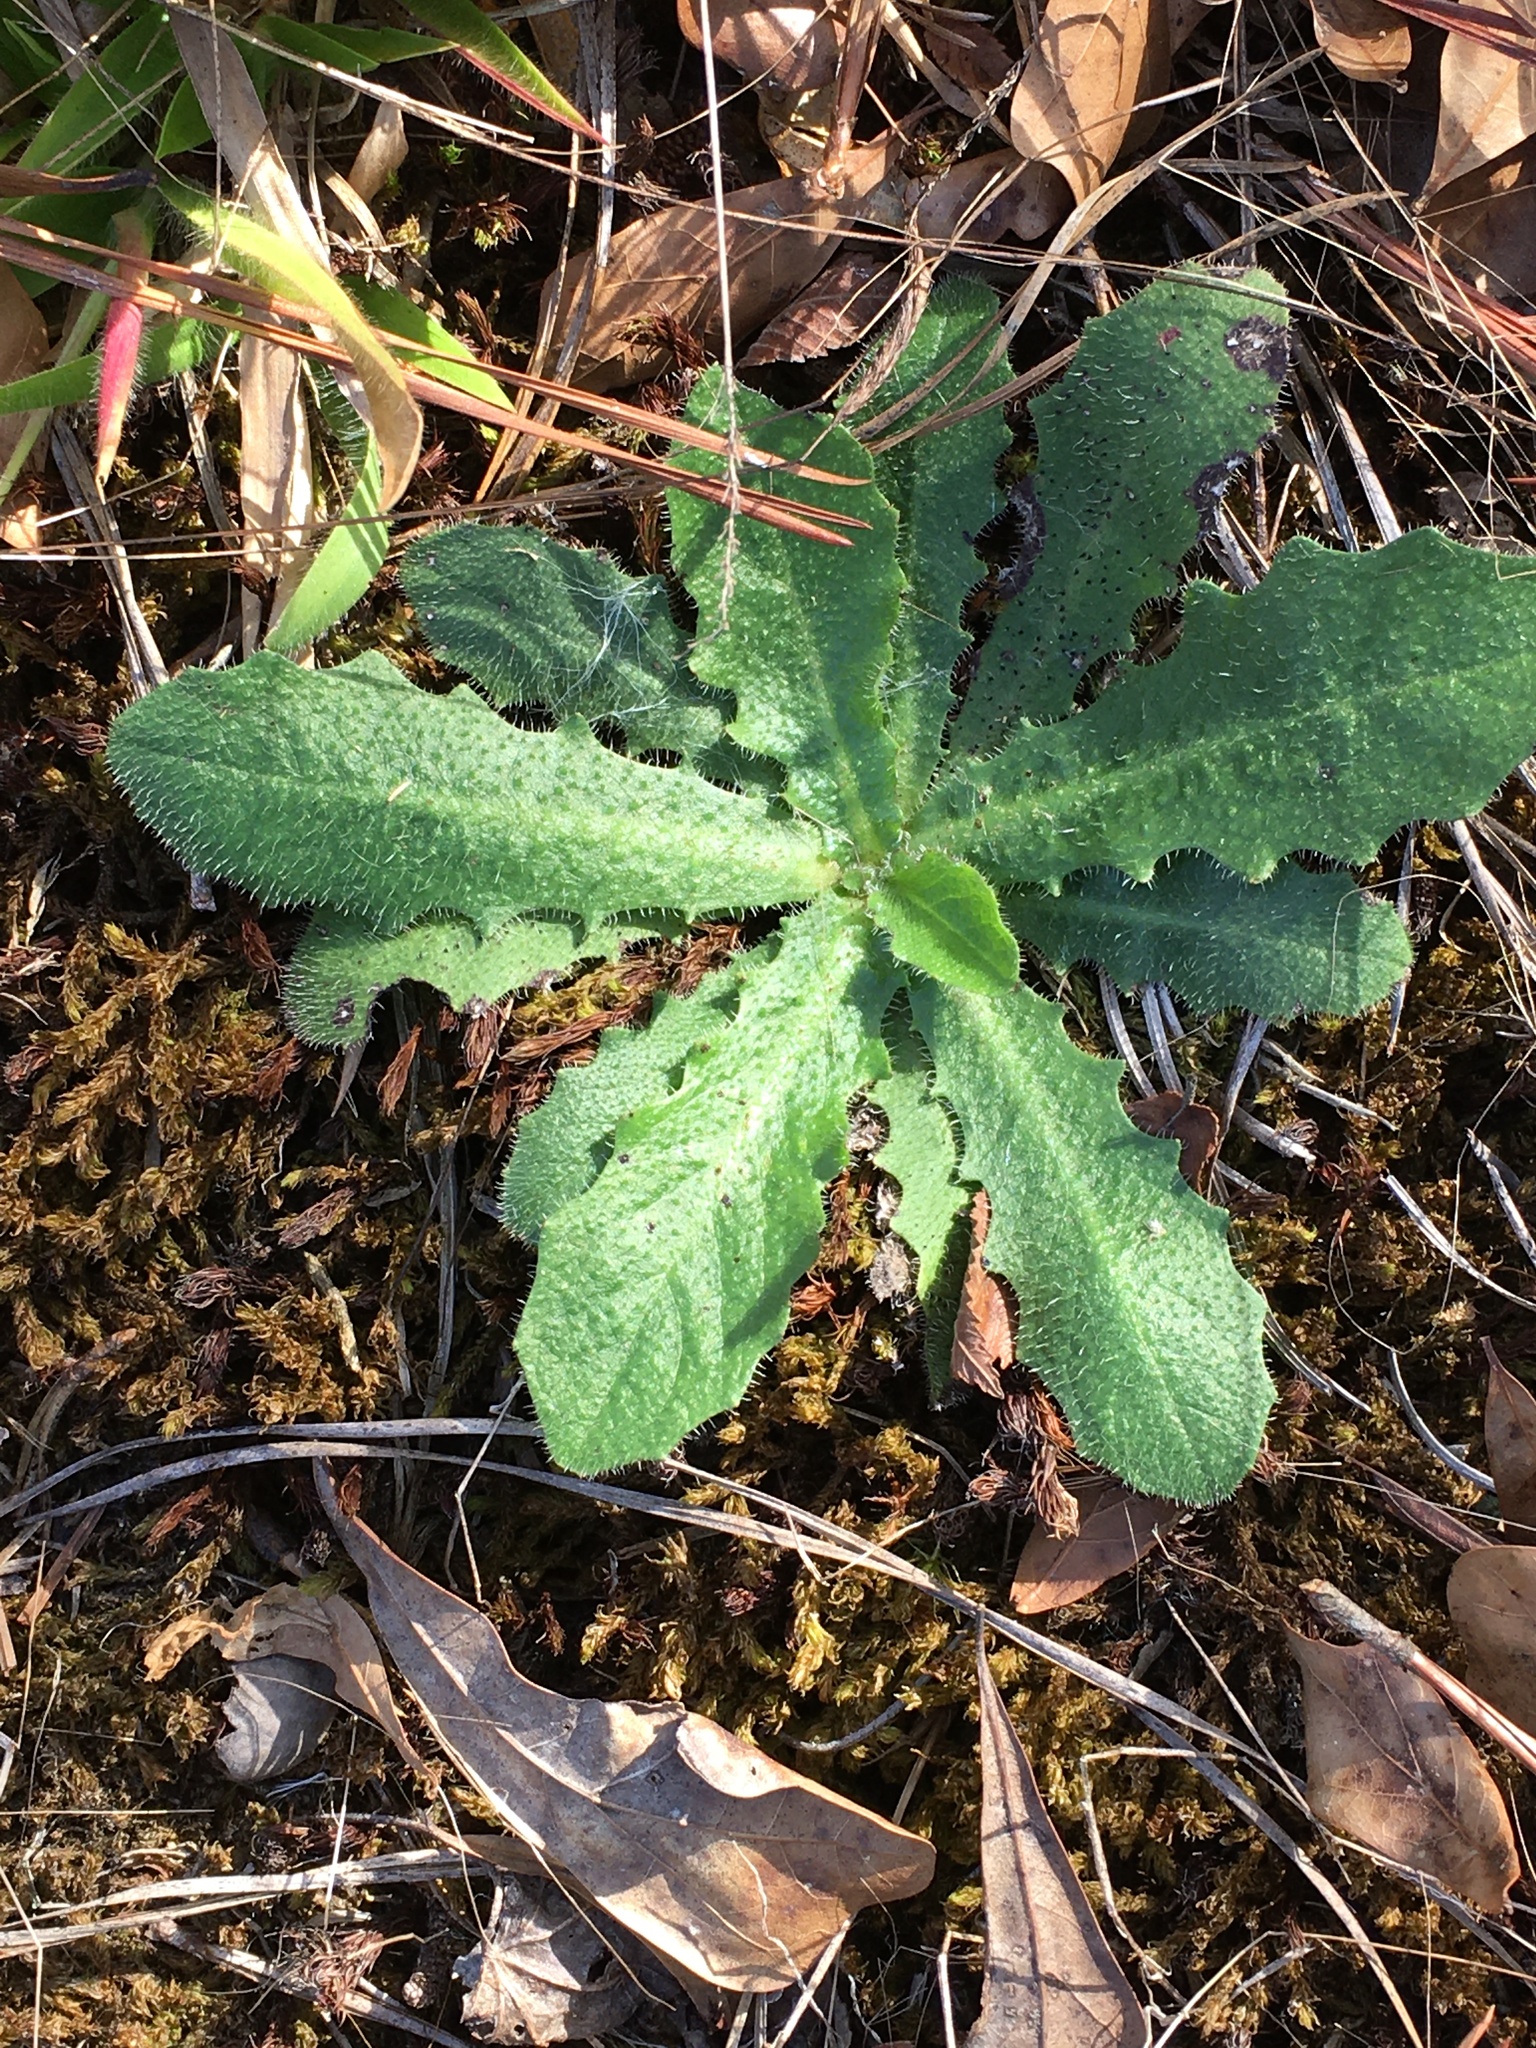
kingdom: Plantae
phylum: Tracheophyta
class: Magnoliopsida
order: Asterales
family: Asteraceae
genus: Hypochaeris
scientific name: Hypochaeris radicata
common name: Flatweed
